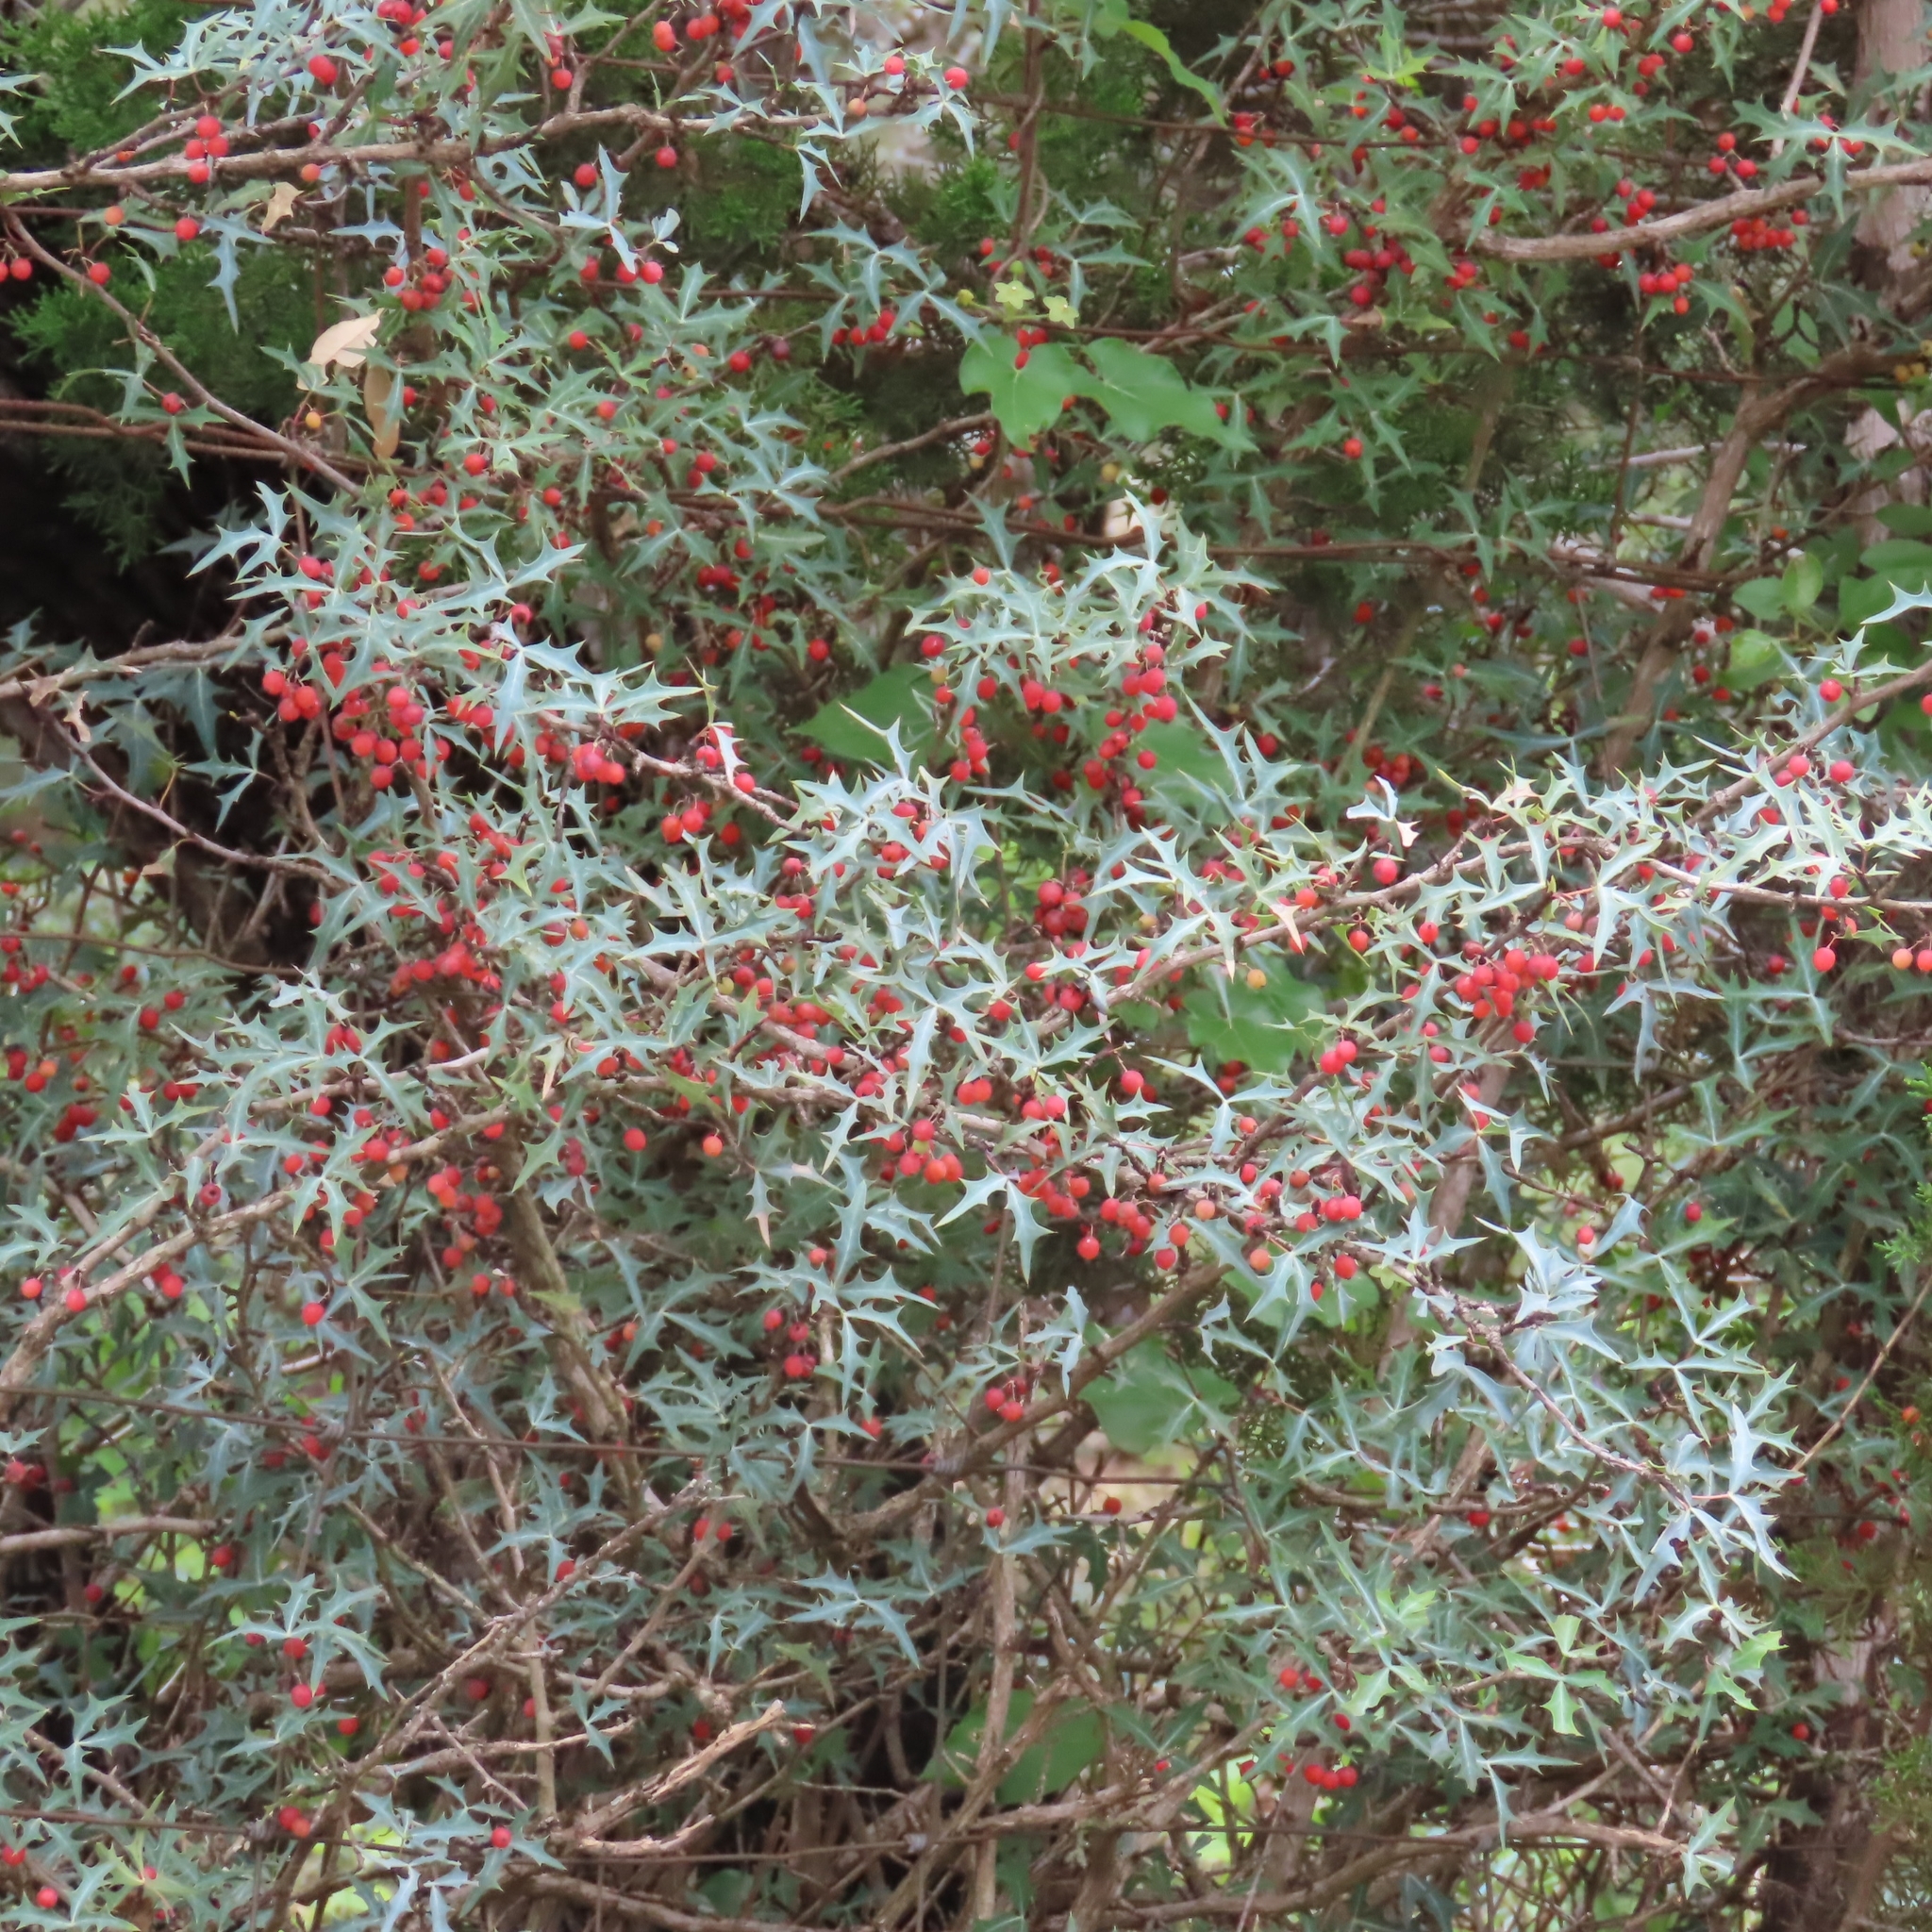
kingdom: Plantae
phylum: Tracheophyta
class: Magnoliopsida
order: Ranunculales
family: Berberidaceae
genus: Alloberberis
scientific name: Alloberberis trifoliolata
